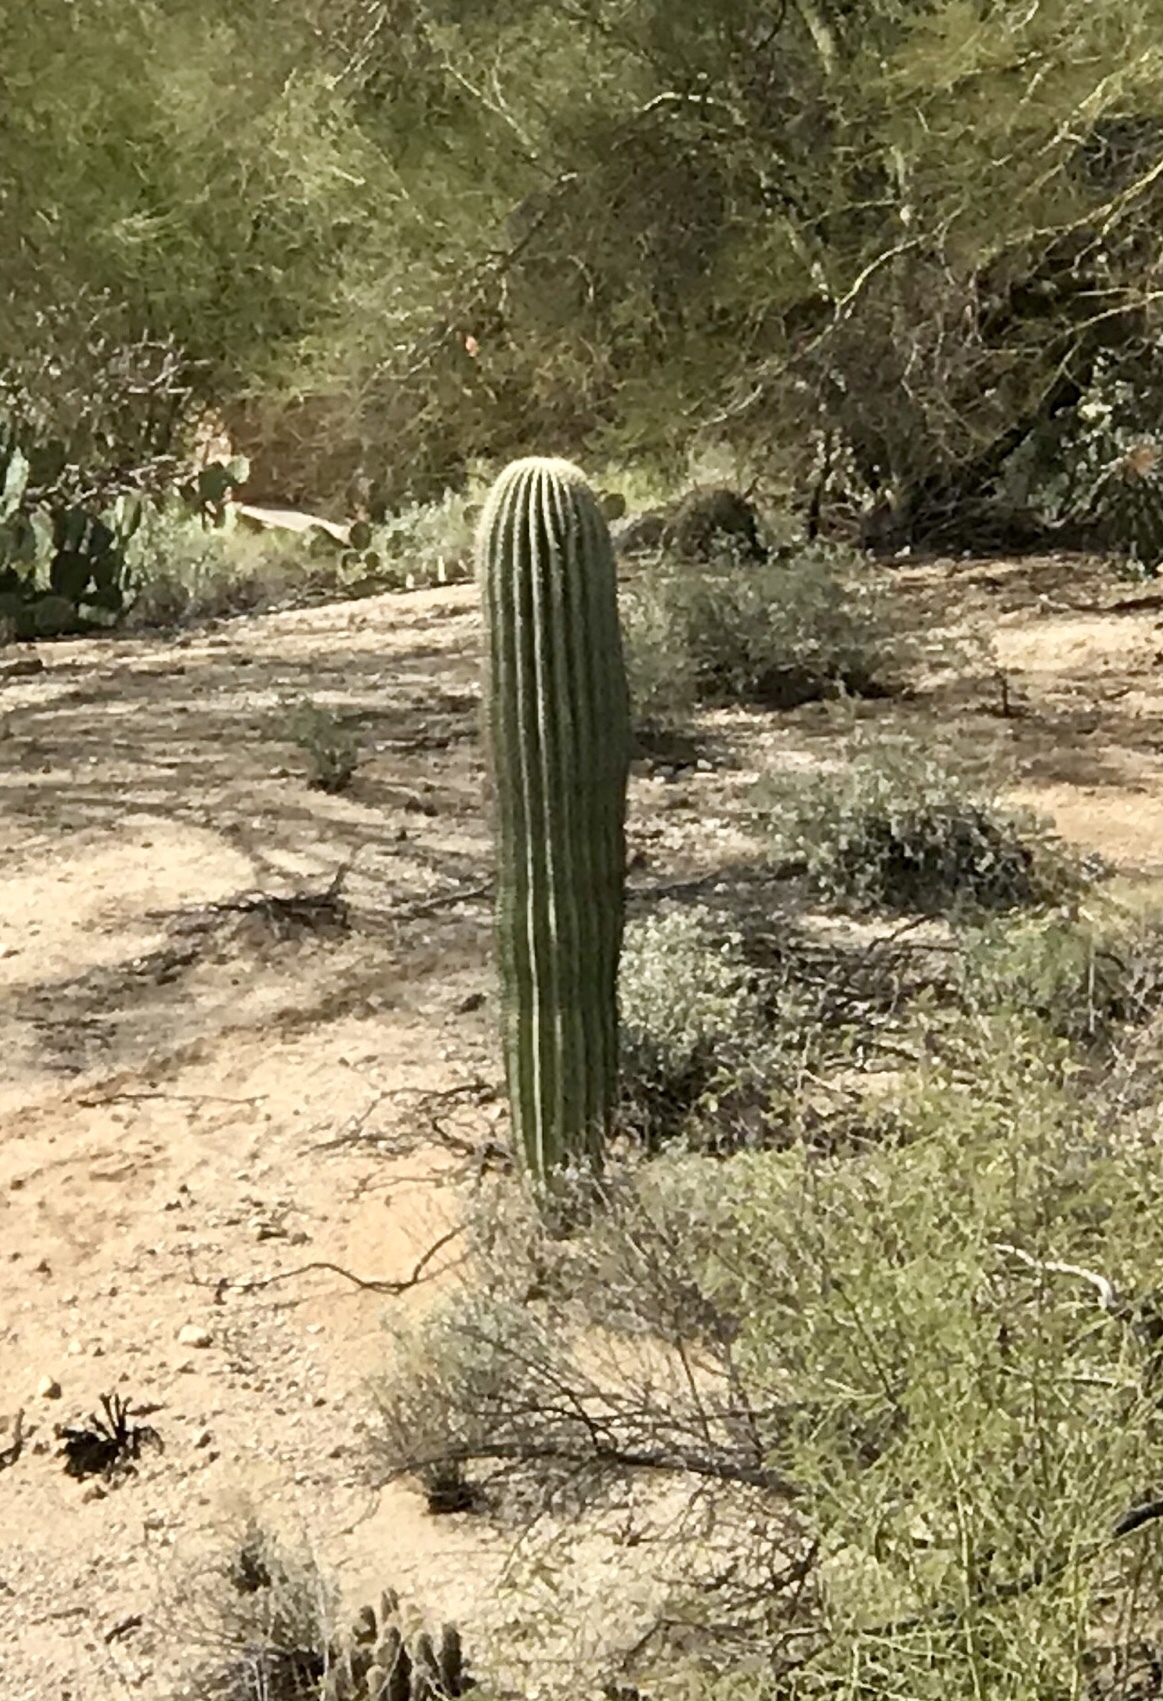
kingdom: Plantae
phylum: Tracheophyta
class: Magnoliopsida
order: Caryophyllales
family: Cactaceae
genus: Carnegiea
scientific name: Carnegiea gigantea
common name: Saguaro
